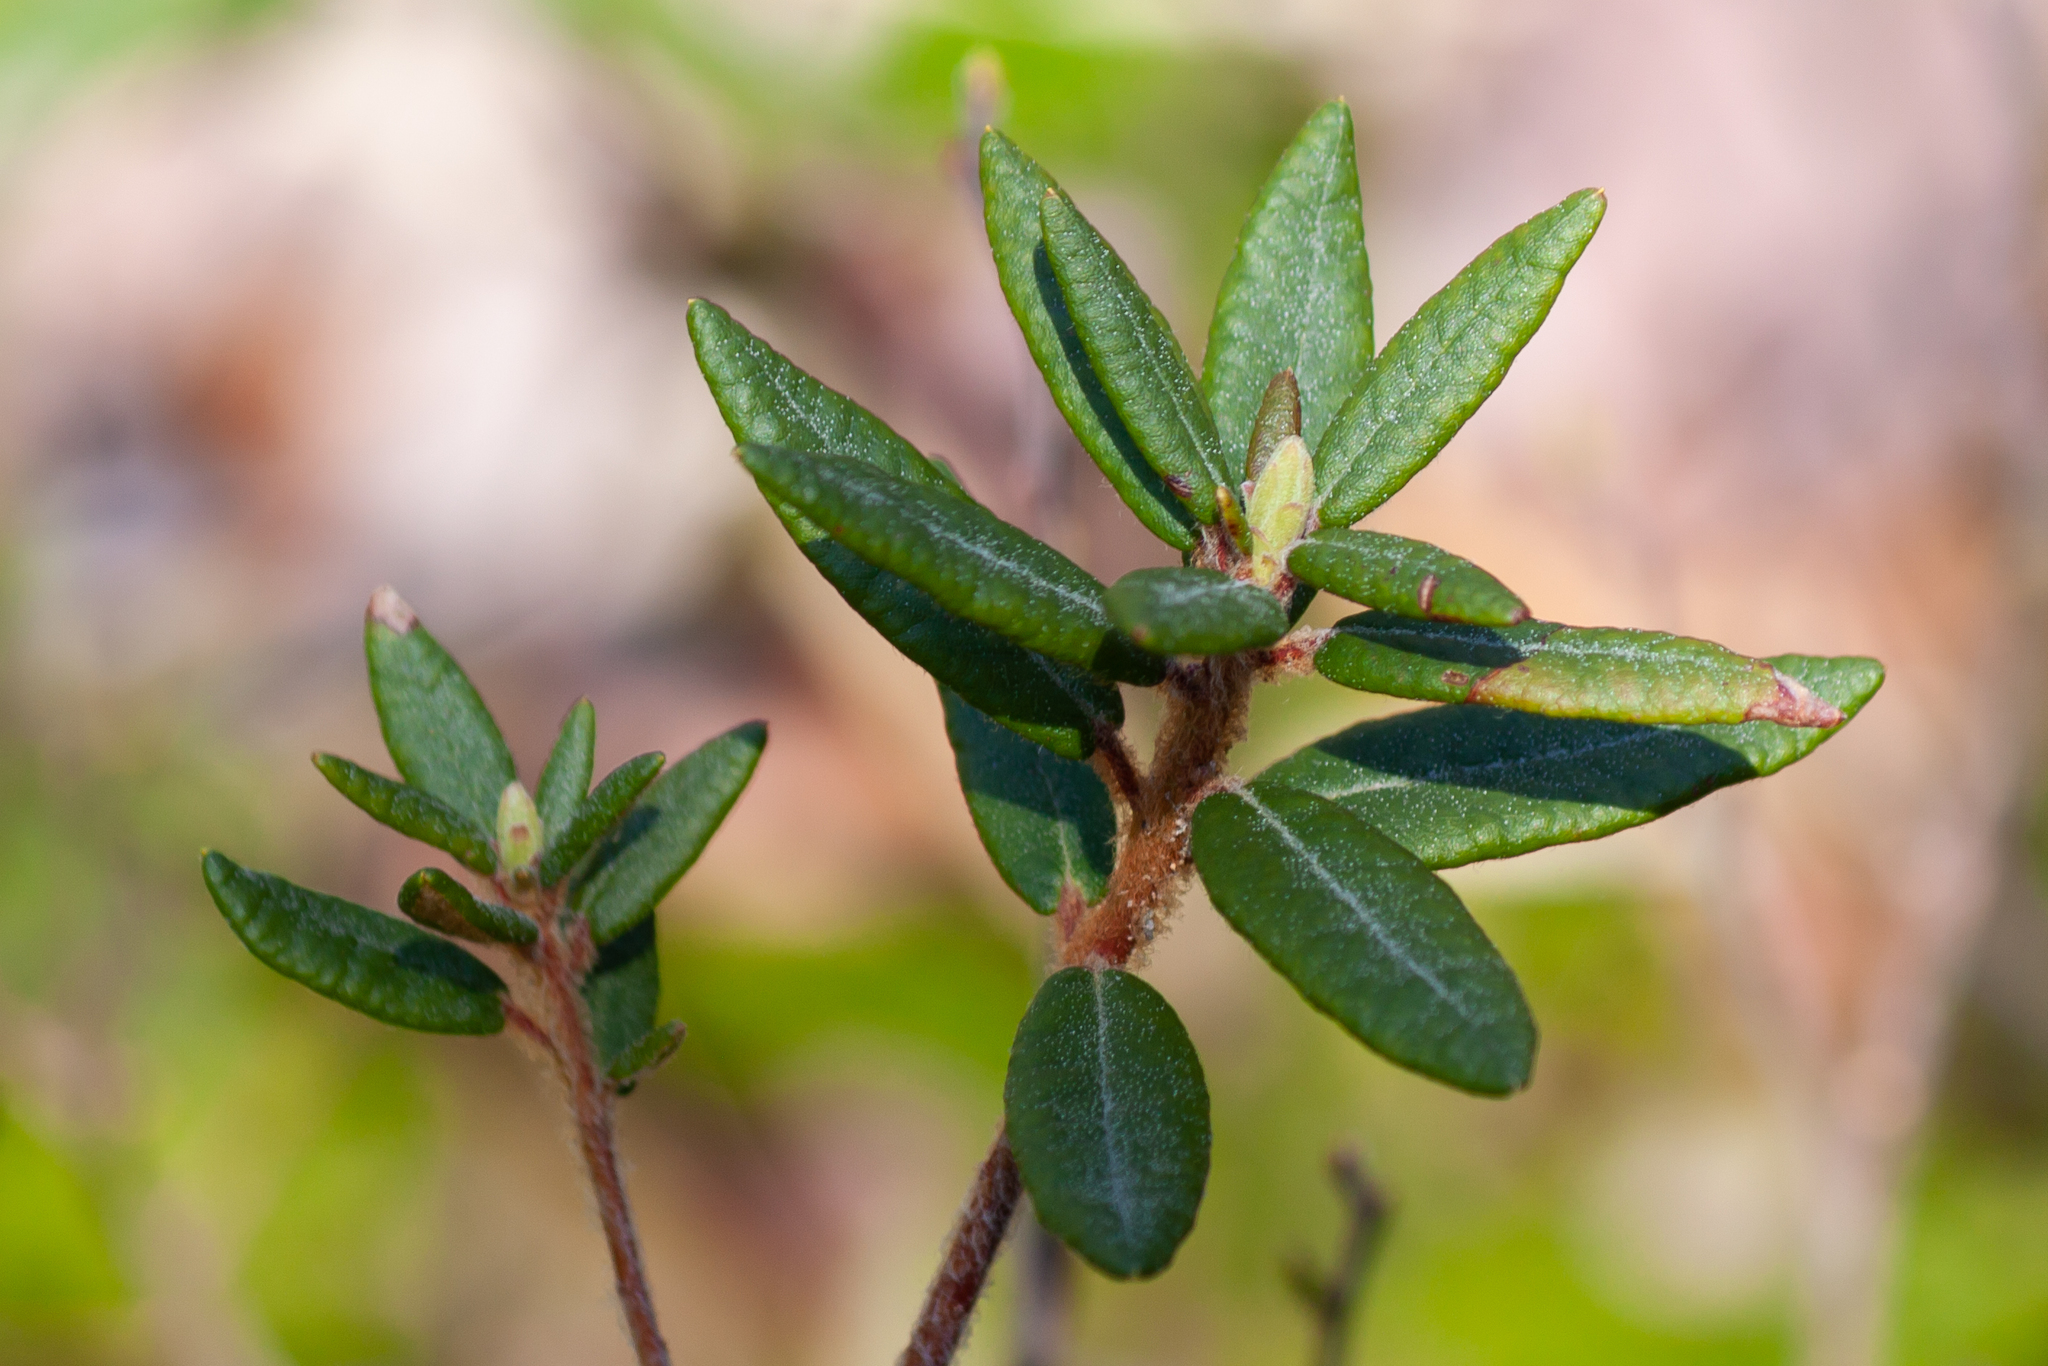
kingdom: Plantae
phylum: Tracheophyta
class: Magnoliopsida
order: Ericales
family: Ericaceae
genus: Rhododendron
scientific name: Rhododendron groenlandicum
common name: Bog labrador tea
